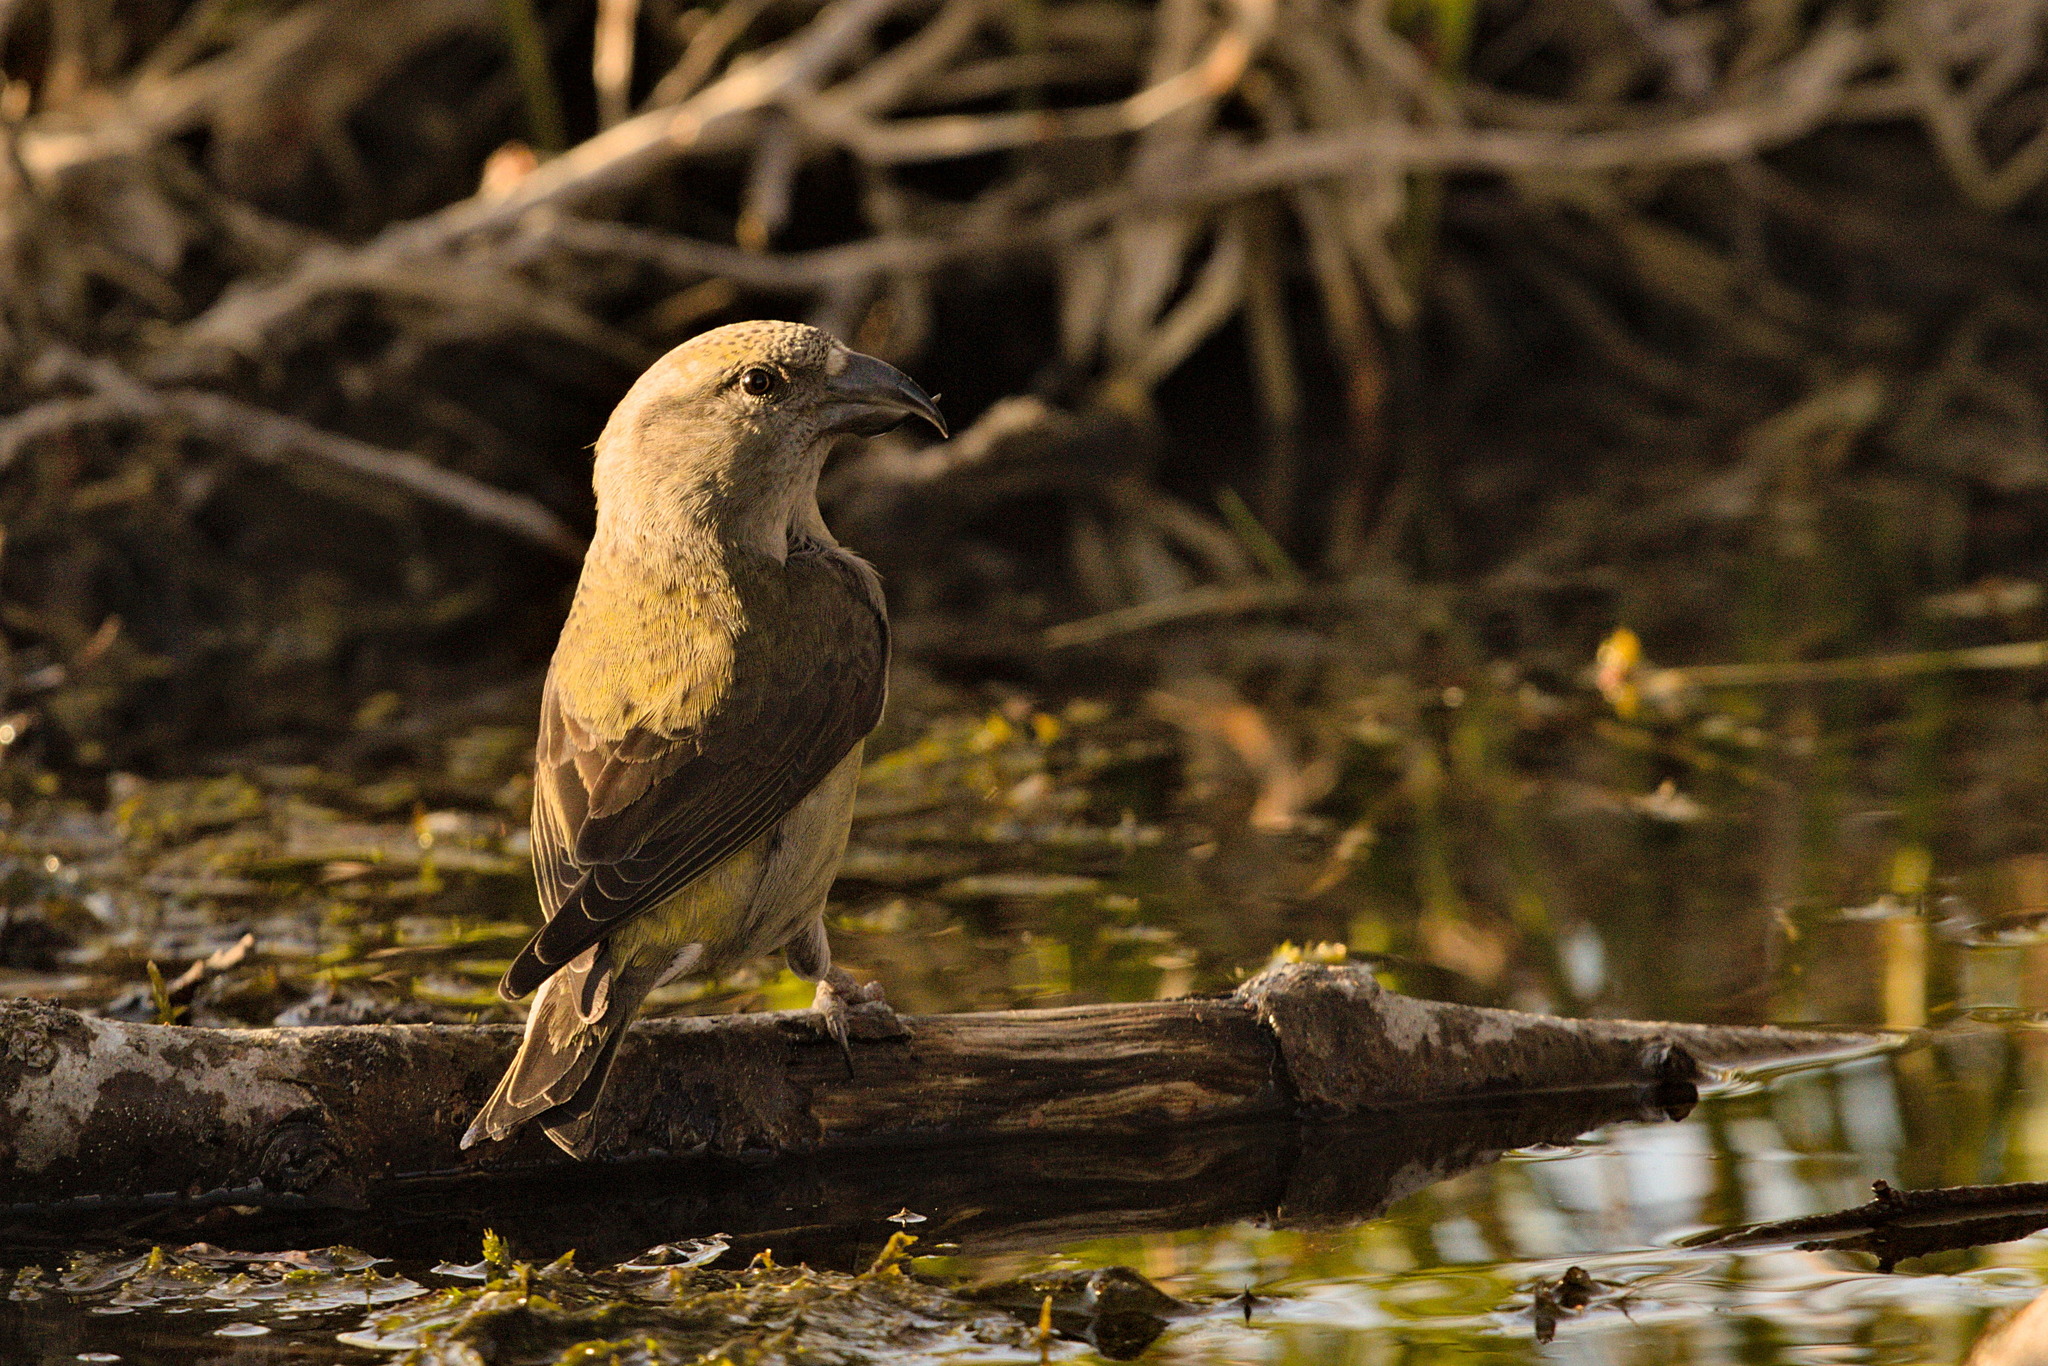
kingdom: Animalia
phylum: Chordata
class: Aves
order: Passeriformes
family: Fringillidae
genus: Loxia
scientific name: Loxia curvirostra
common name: Red crossbill
